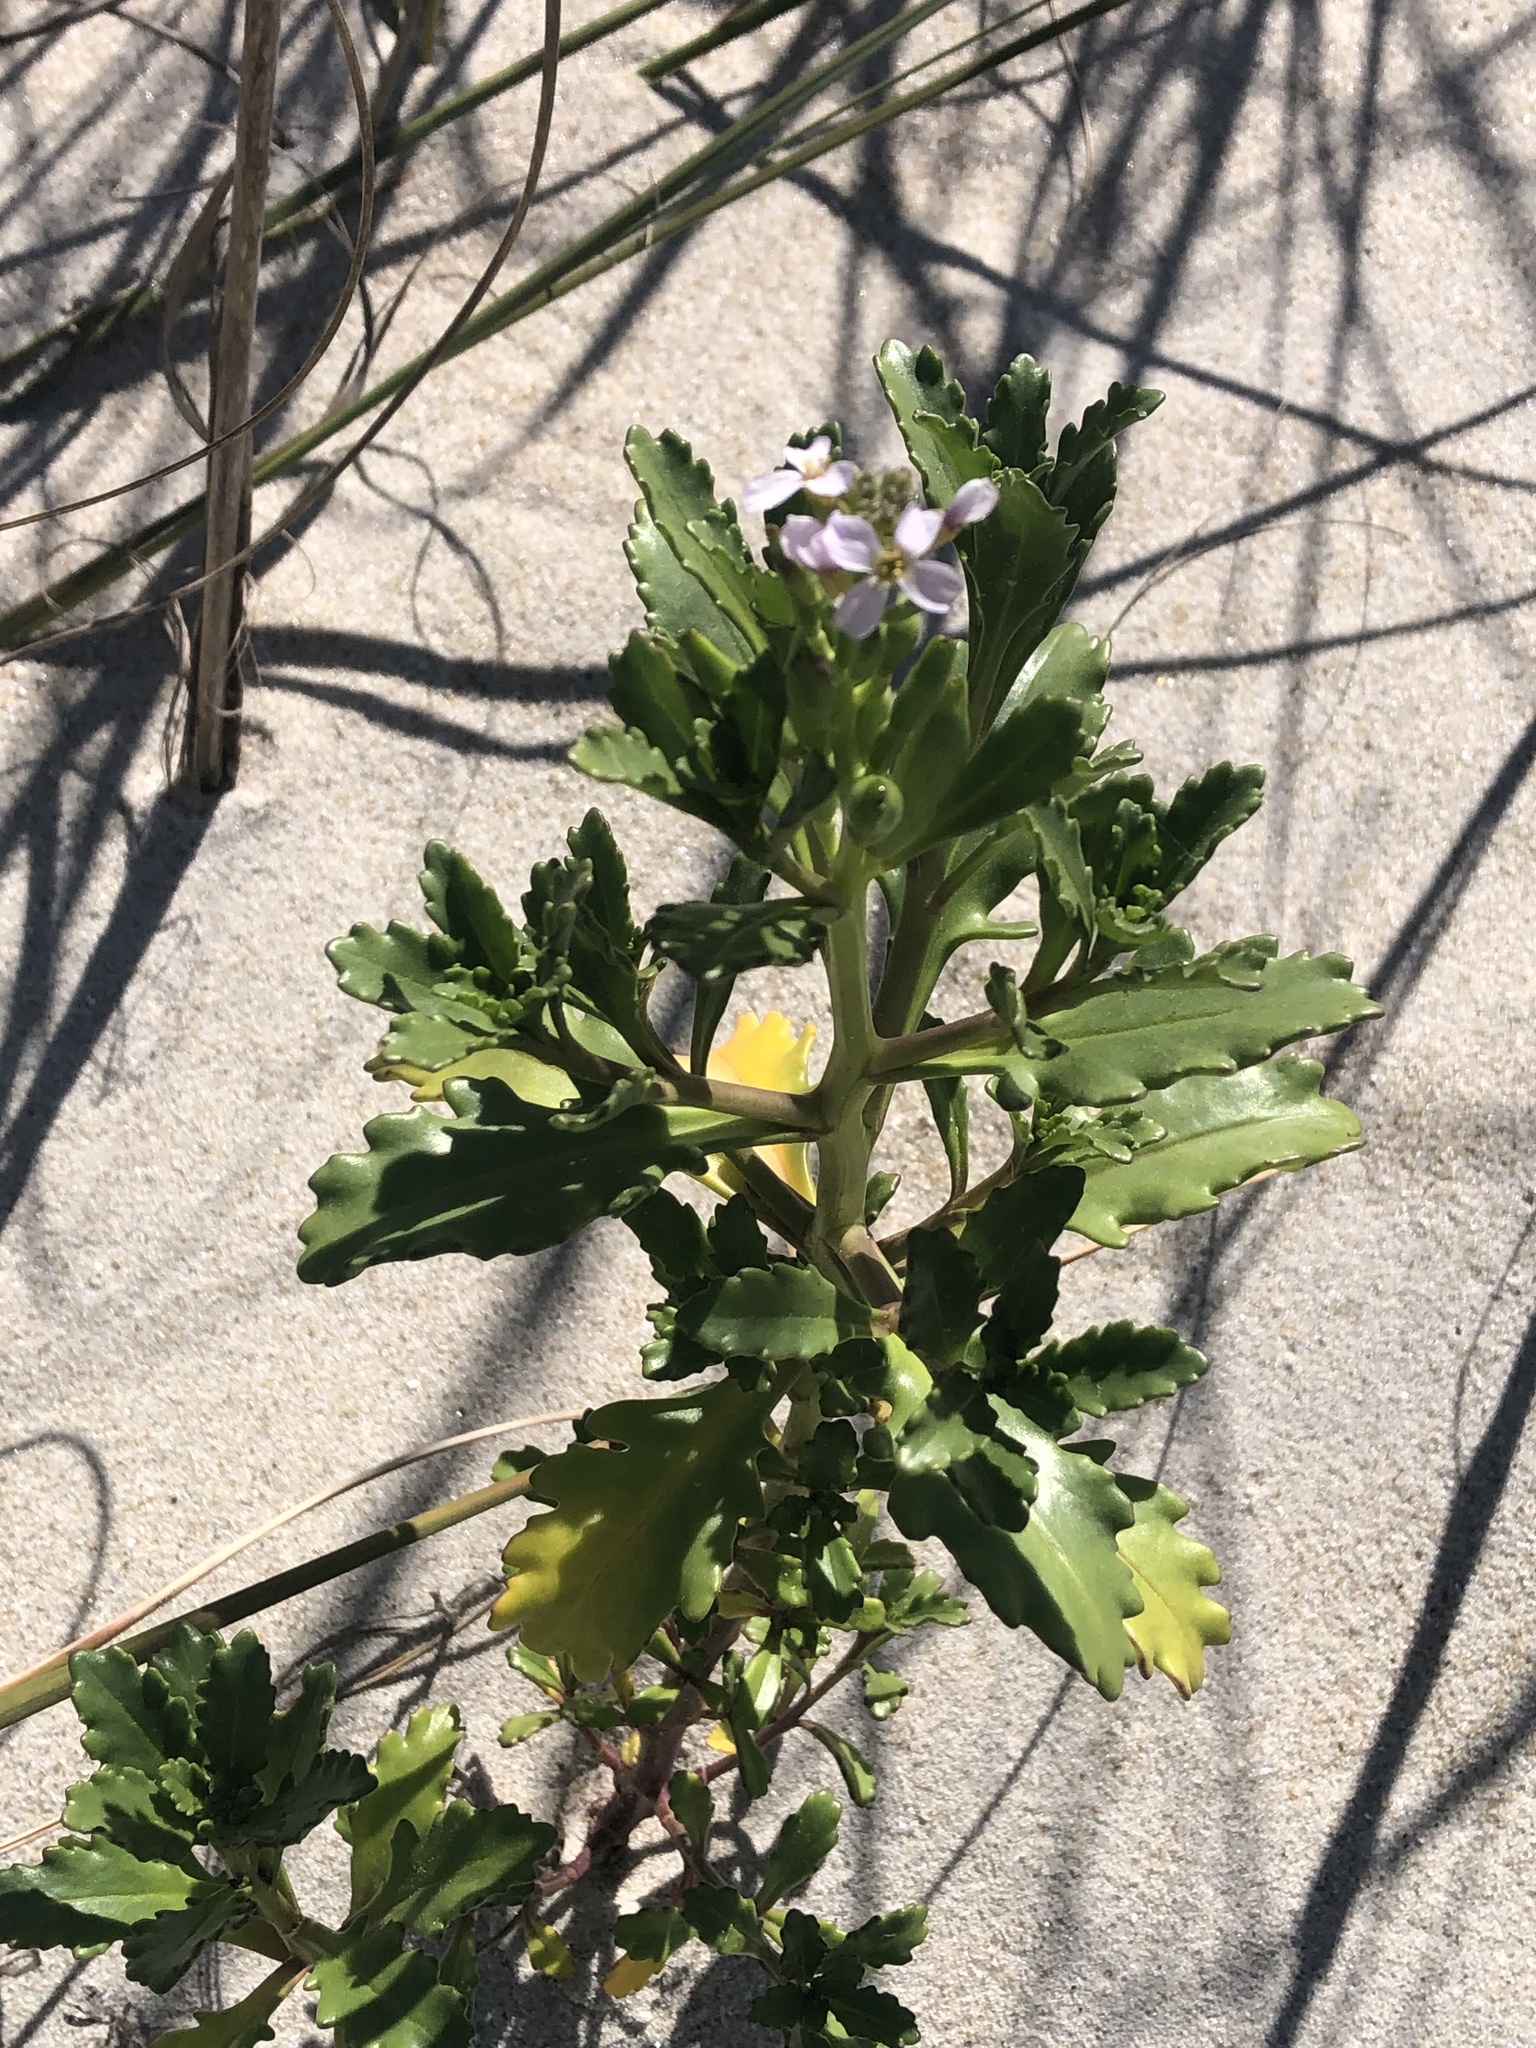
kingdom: Plantae
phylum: Tracheophyta
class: Magnoliopsida
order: Brassicales
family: Brassicaceae
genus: Cakile
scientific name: Cakile edentula
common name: American sea rocket
